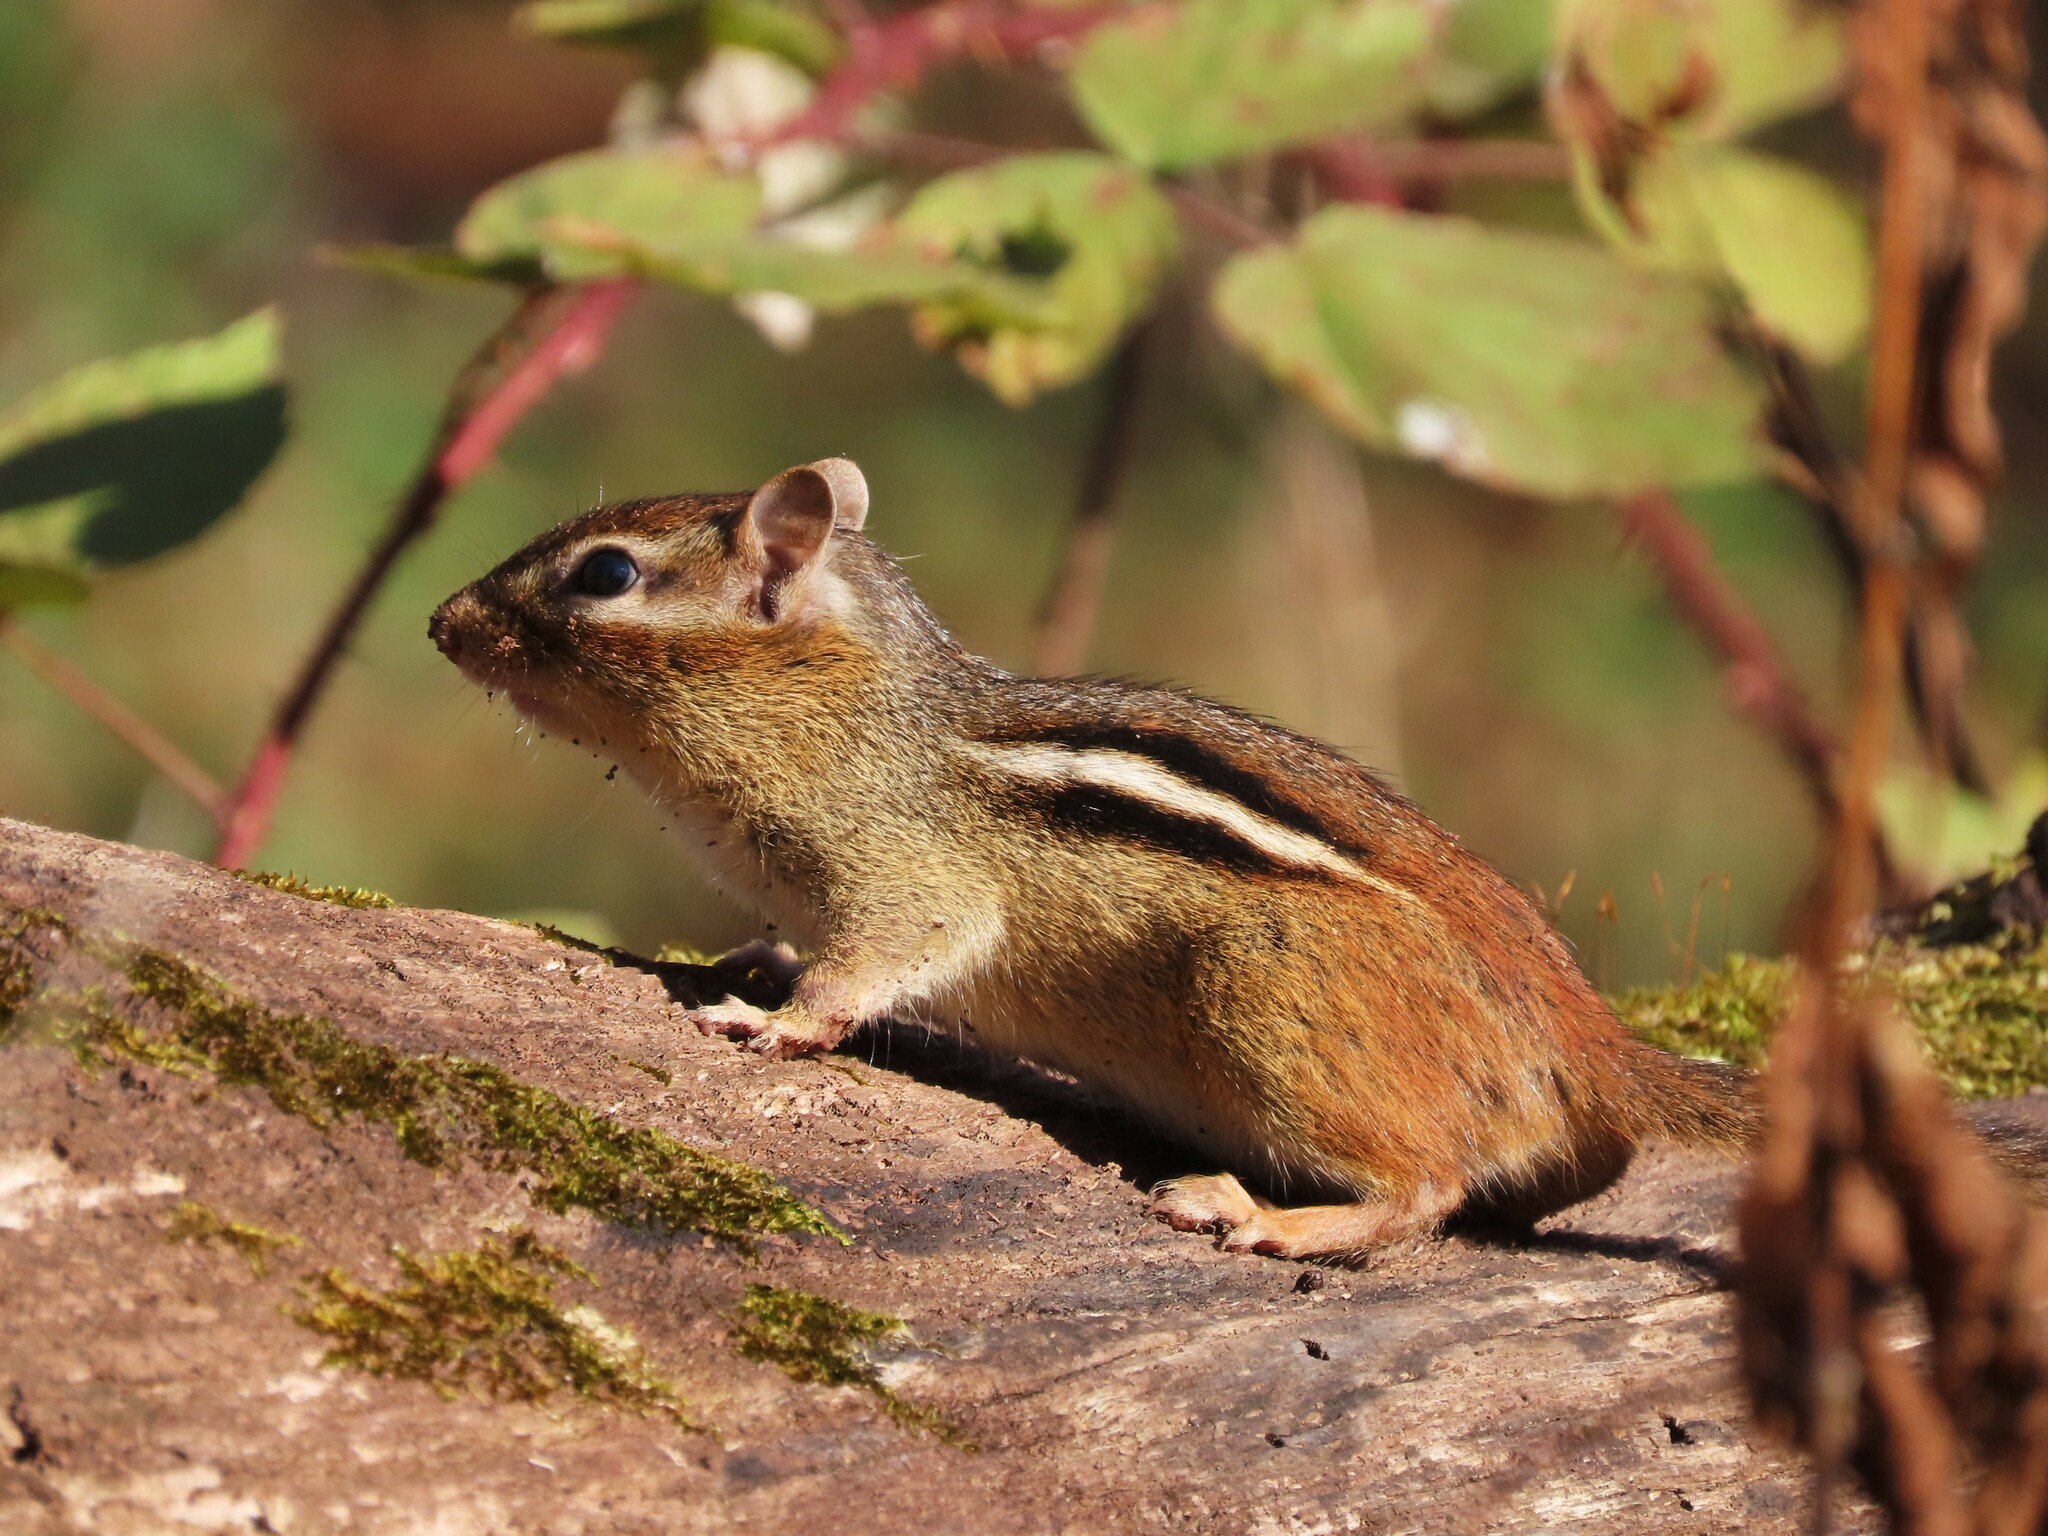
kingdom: Animalia
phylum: Chordata
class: Mammalia
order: Rodentia
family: Sciuridae
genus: Tamias
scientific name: Tamias striatus
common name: Eastern chipmunk
